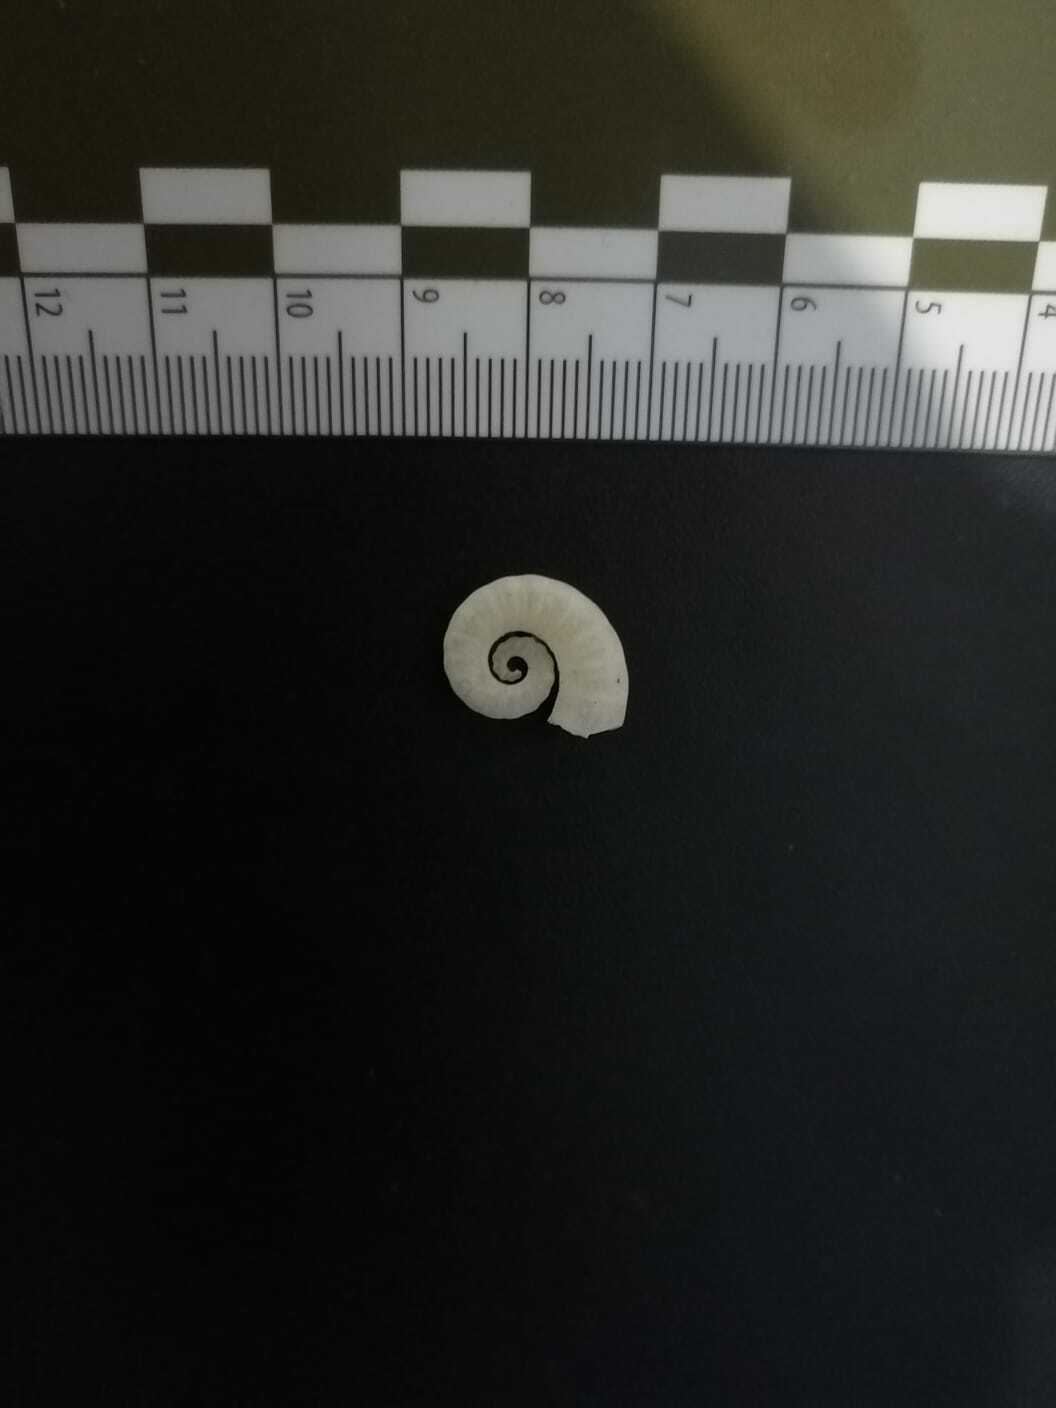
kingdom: Animalia
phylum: Mollusca
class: Cephalopoda
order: Spirulida
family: Spirulidae
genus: Spirula
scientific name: Spirula spirula
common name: Ram's horn squid
